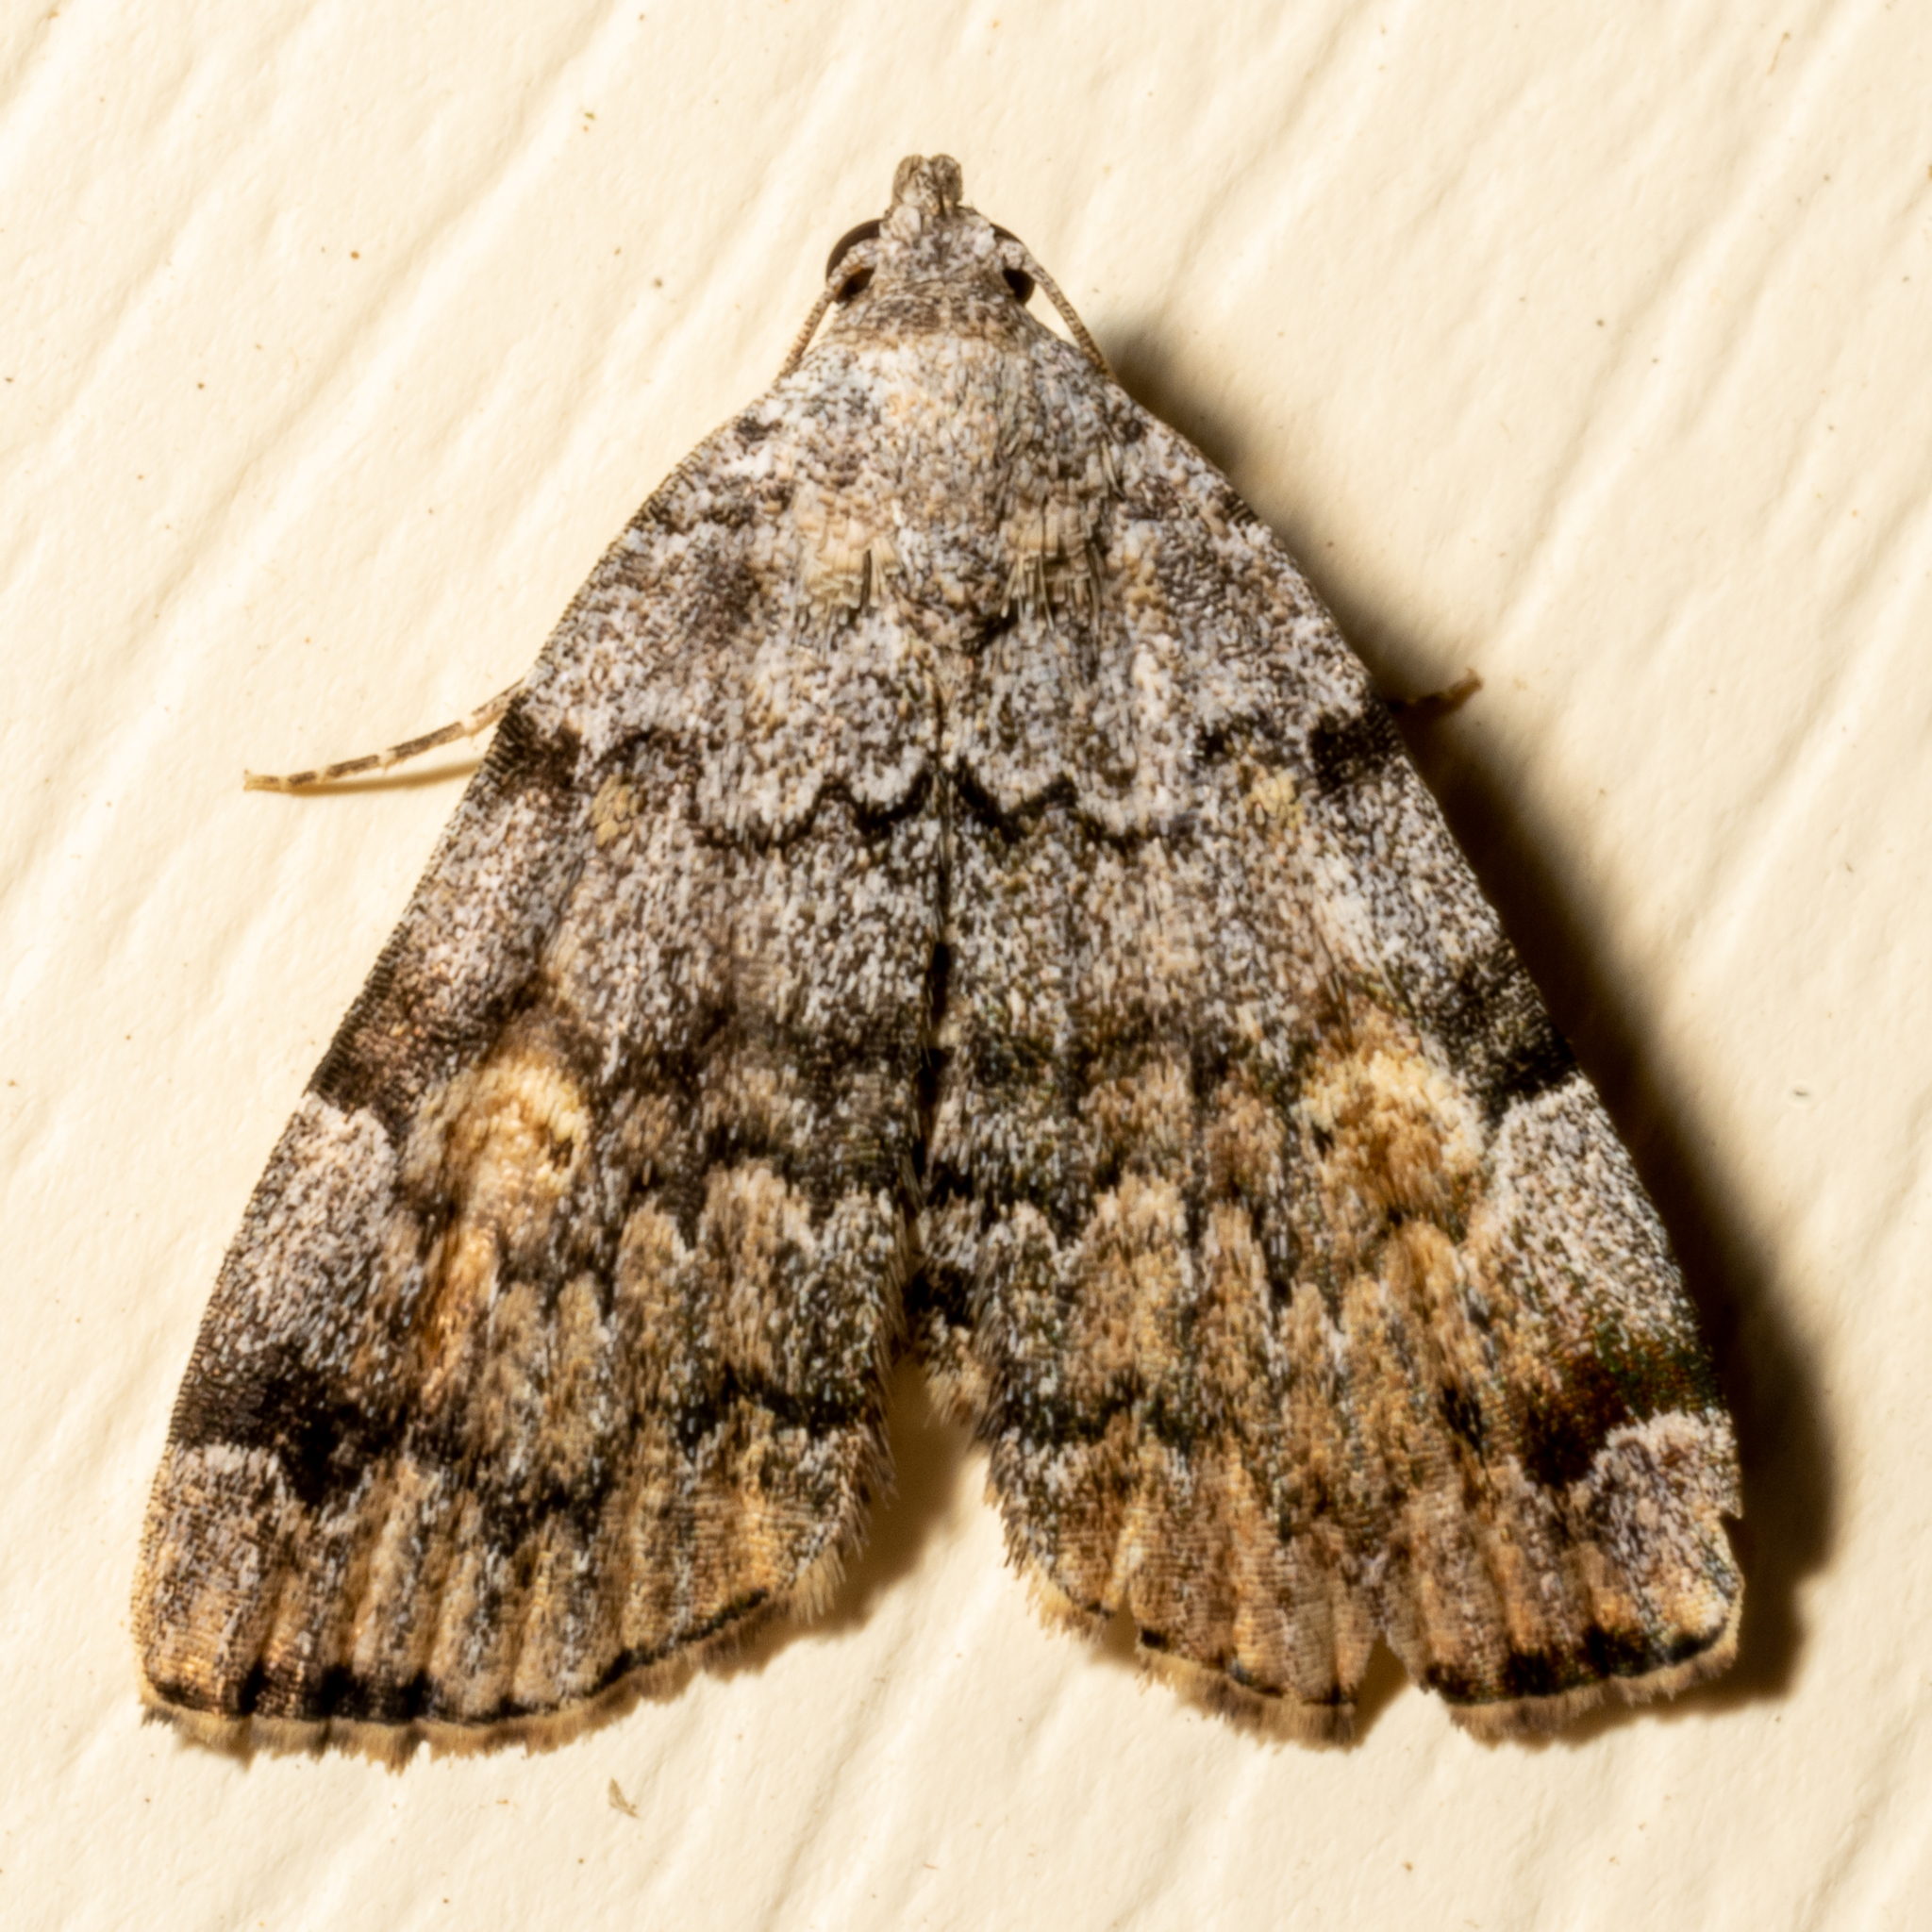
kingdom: Animalia
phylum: Arthropoda
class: Insecta
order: Lepidoptera
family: Erebidae
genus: Idia
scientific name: Idia americalis
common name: American idia moth
